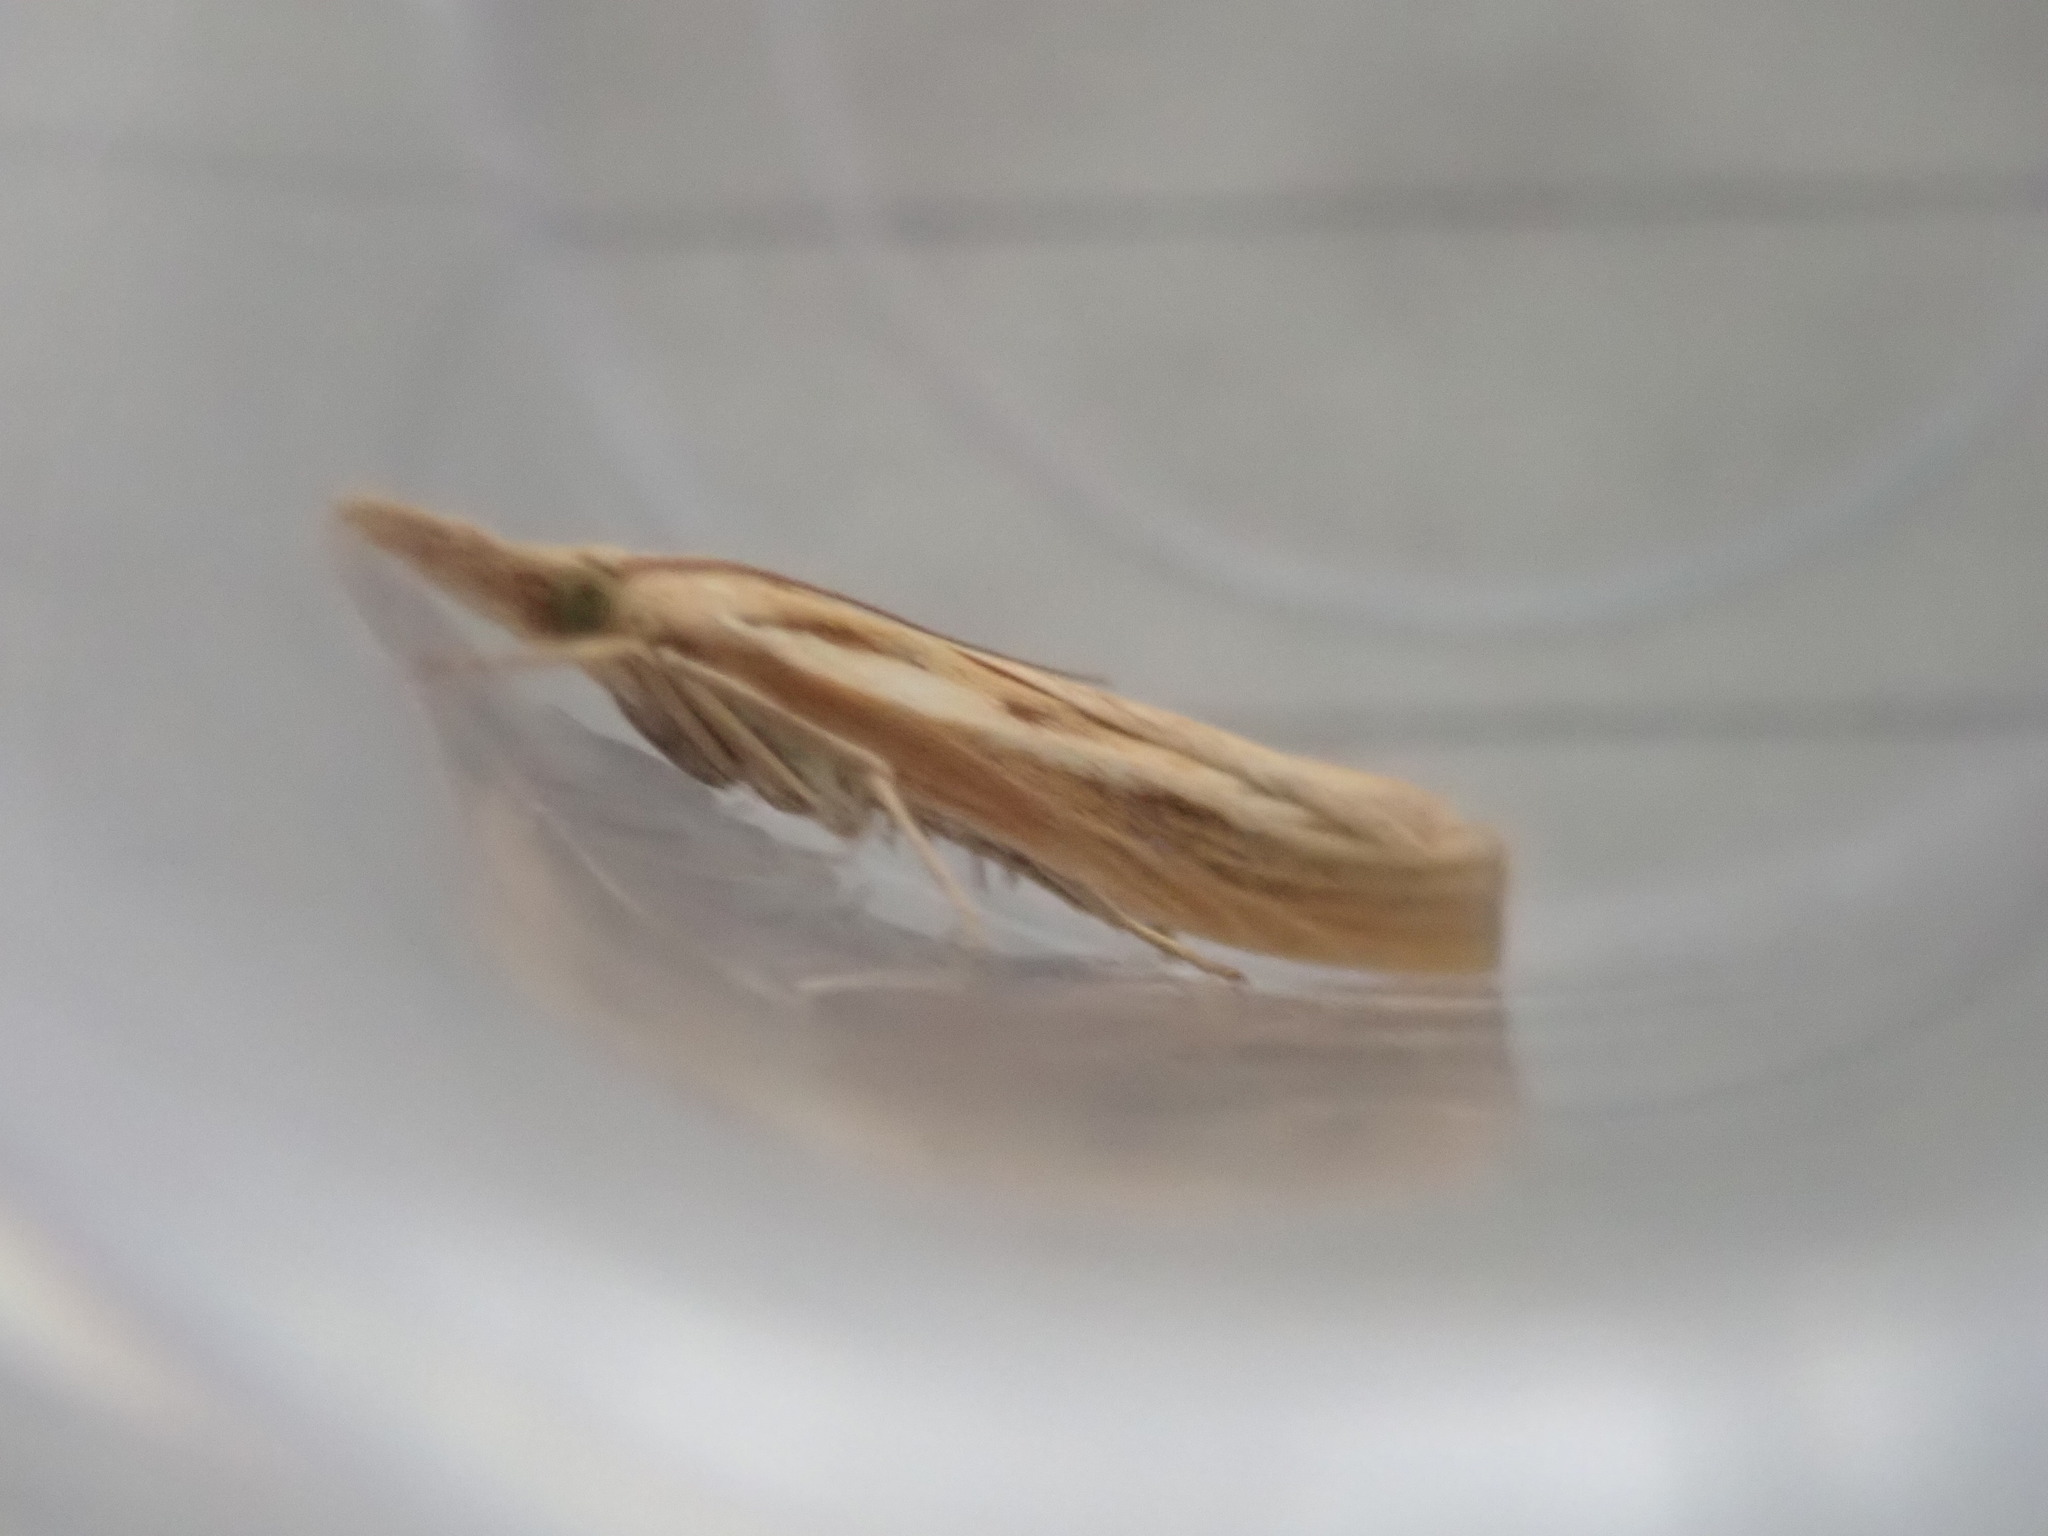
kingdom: Animalia
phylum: Arthropoda
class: Insecta
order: Lepidoptera
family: Crambidae
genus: Agriphila
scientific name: Agriphila tristellus
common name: Common grass-veneer
